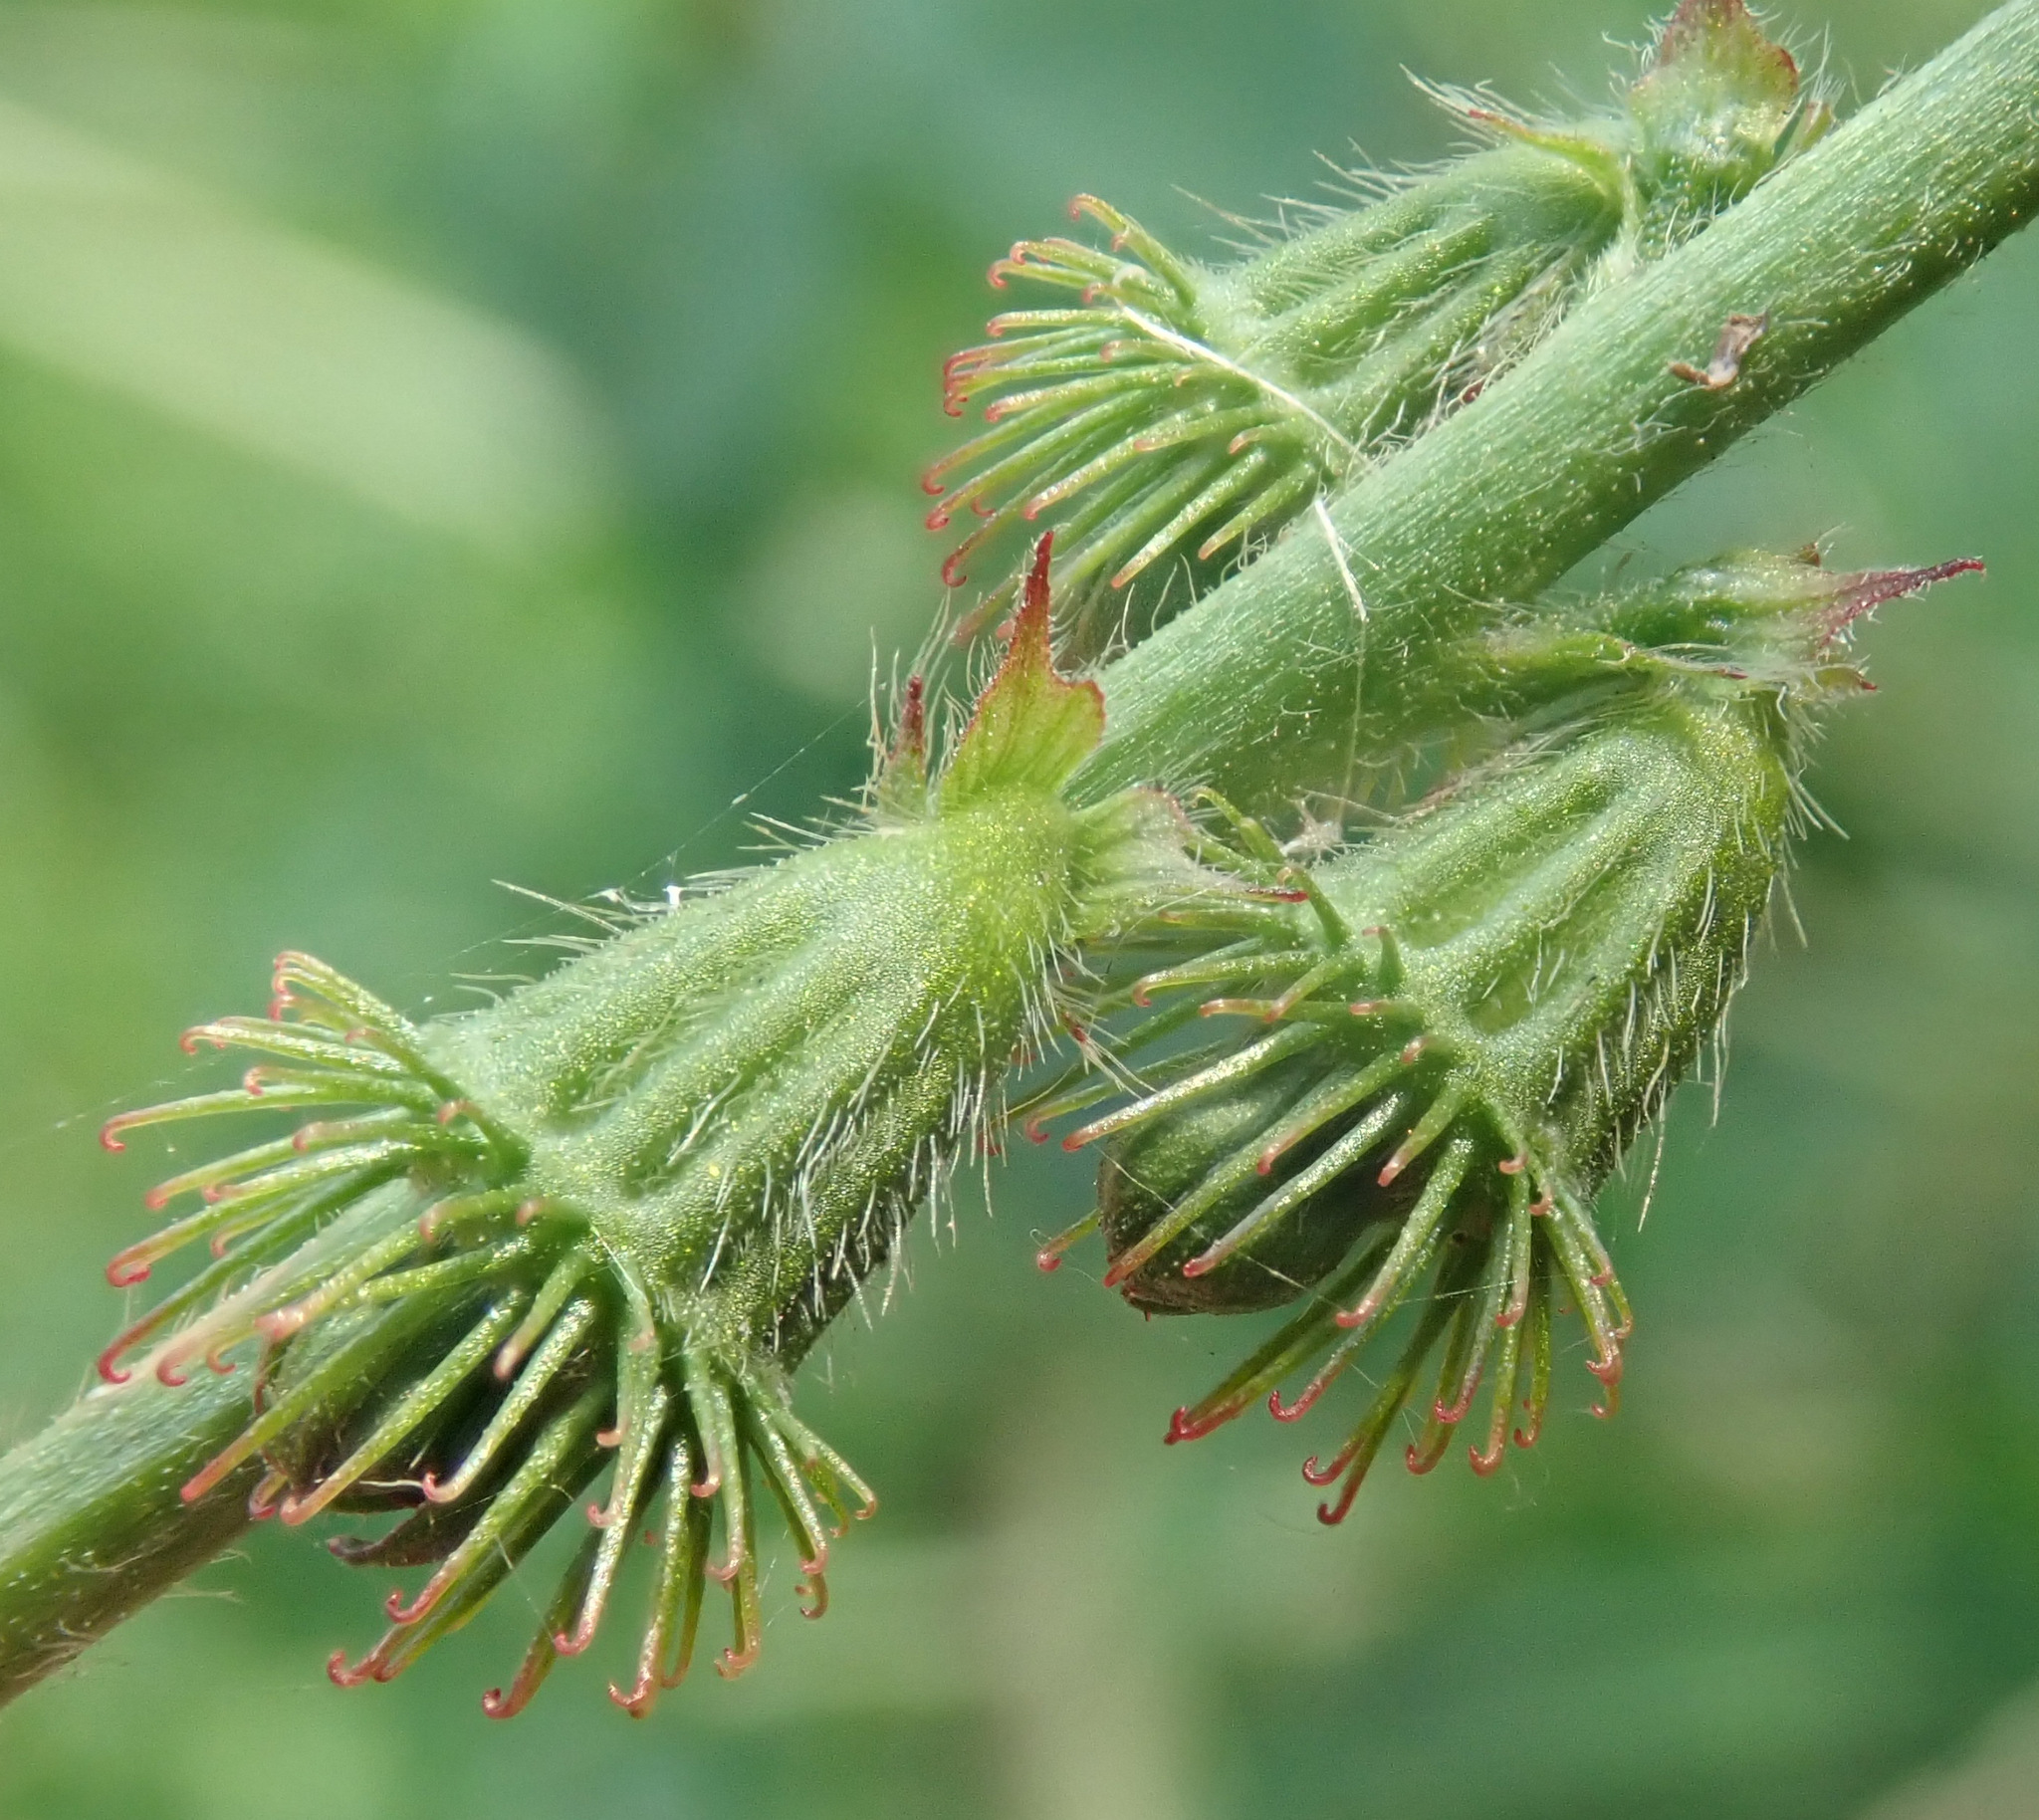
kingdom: Plantae
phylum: Tracheophyta
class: Magnoliopsida
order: Rosales
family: Rosaceae
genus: Agrimonia
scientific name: Agrimonia eupatoria
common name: Agrimony
